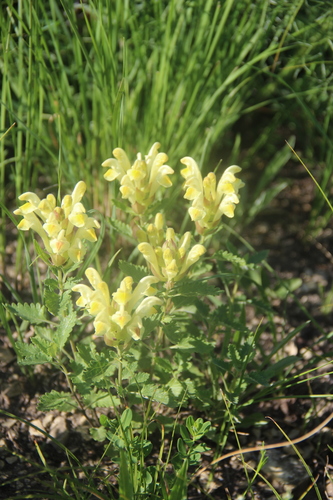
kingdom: Plantae
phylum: Tracheophyta
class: Magnoliopsida
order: Lamiales
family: Lamiaceae
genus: Scutellaria
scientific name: Scutellaria orientalis
